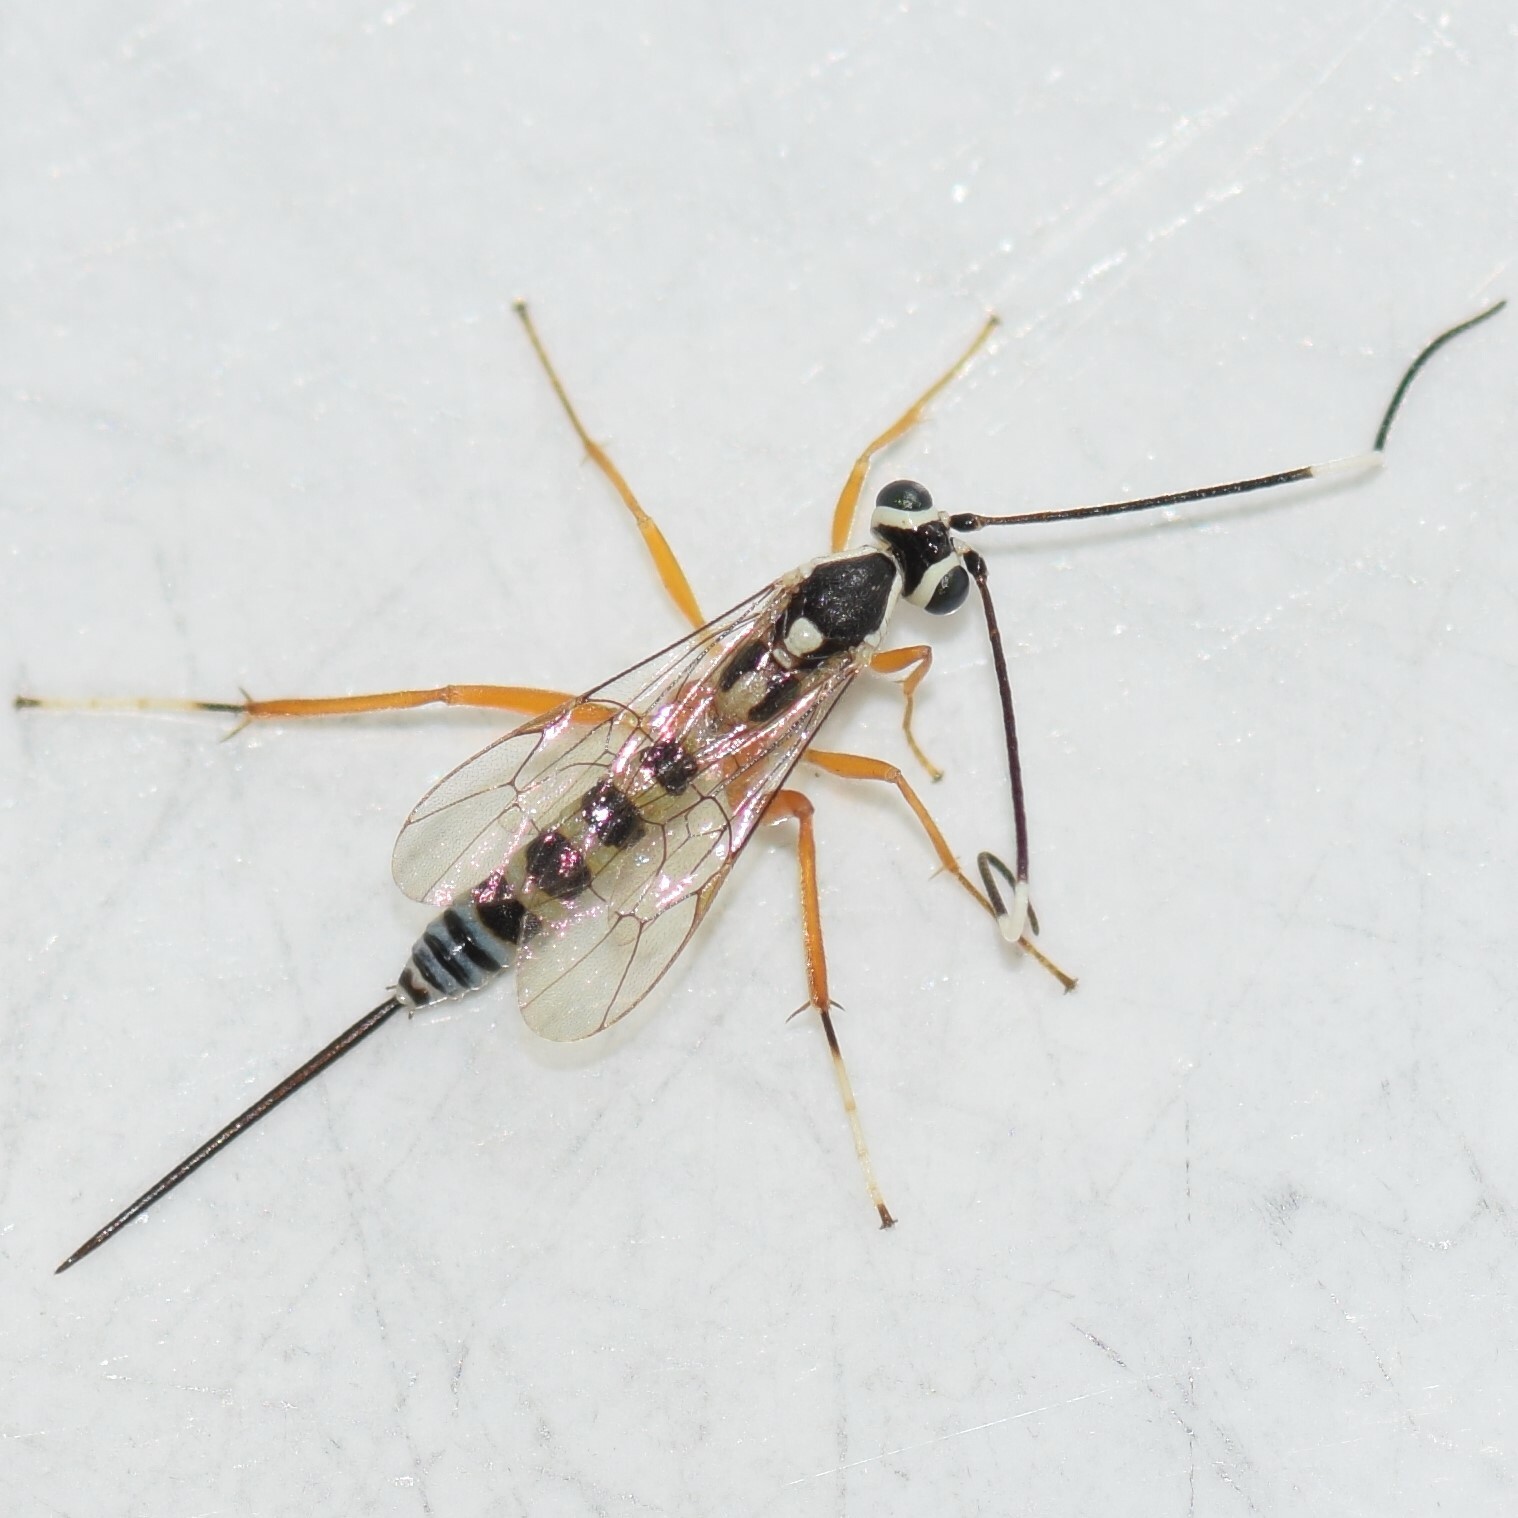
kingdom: Animalia
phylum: Arthropoda
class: Insecta
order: Hymenoptera
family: Ichneumonidae
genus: Sphelodon
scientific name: Sphelodon phoxopteridis
